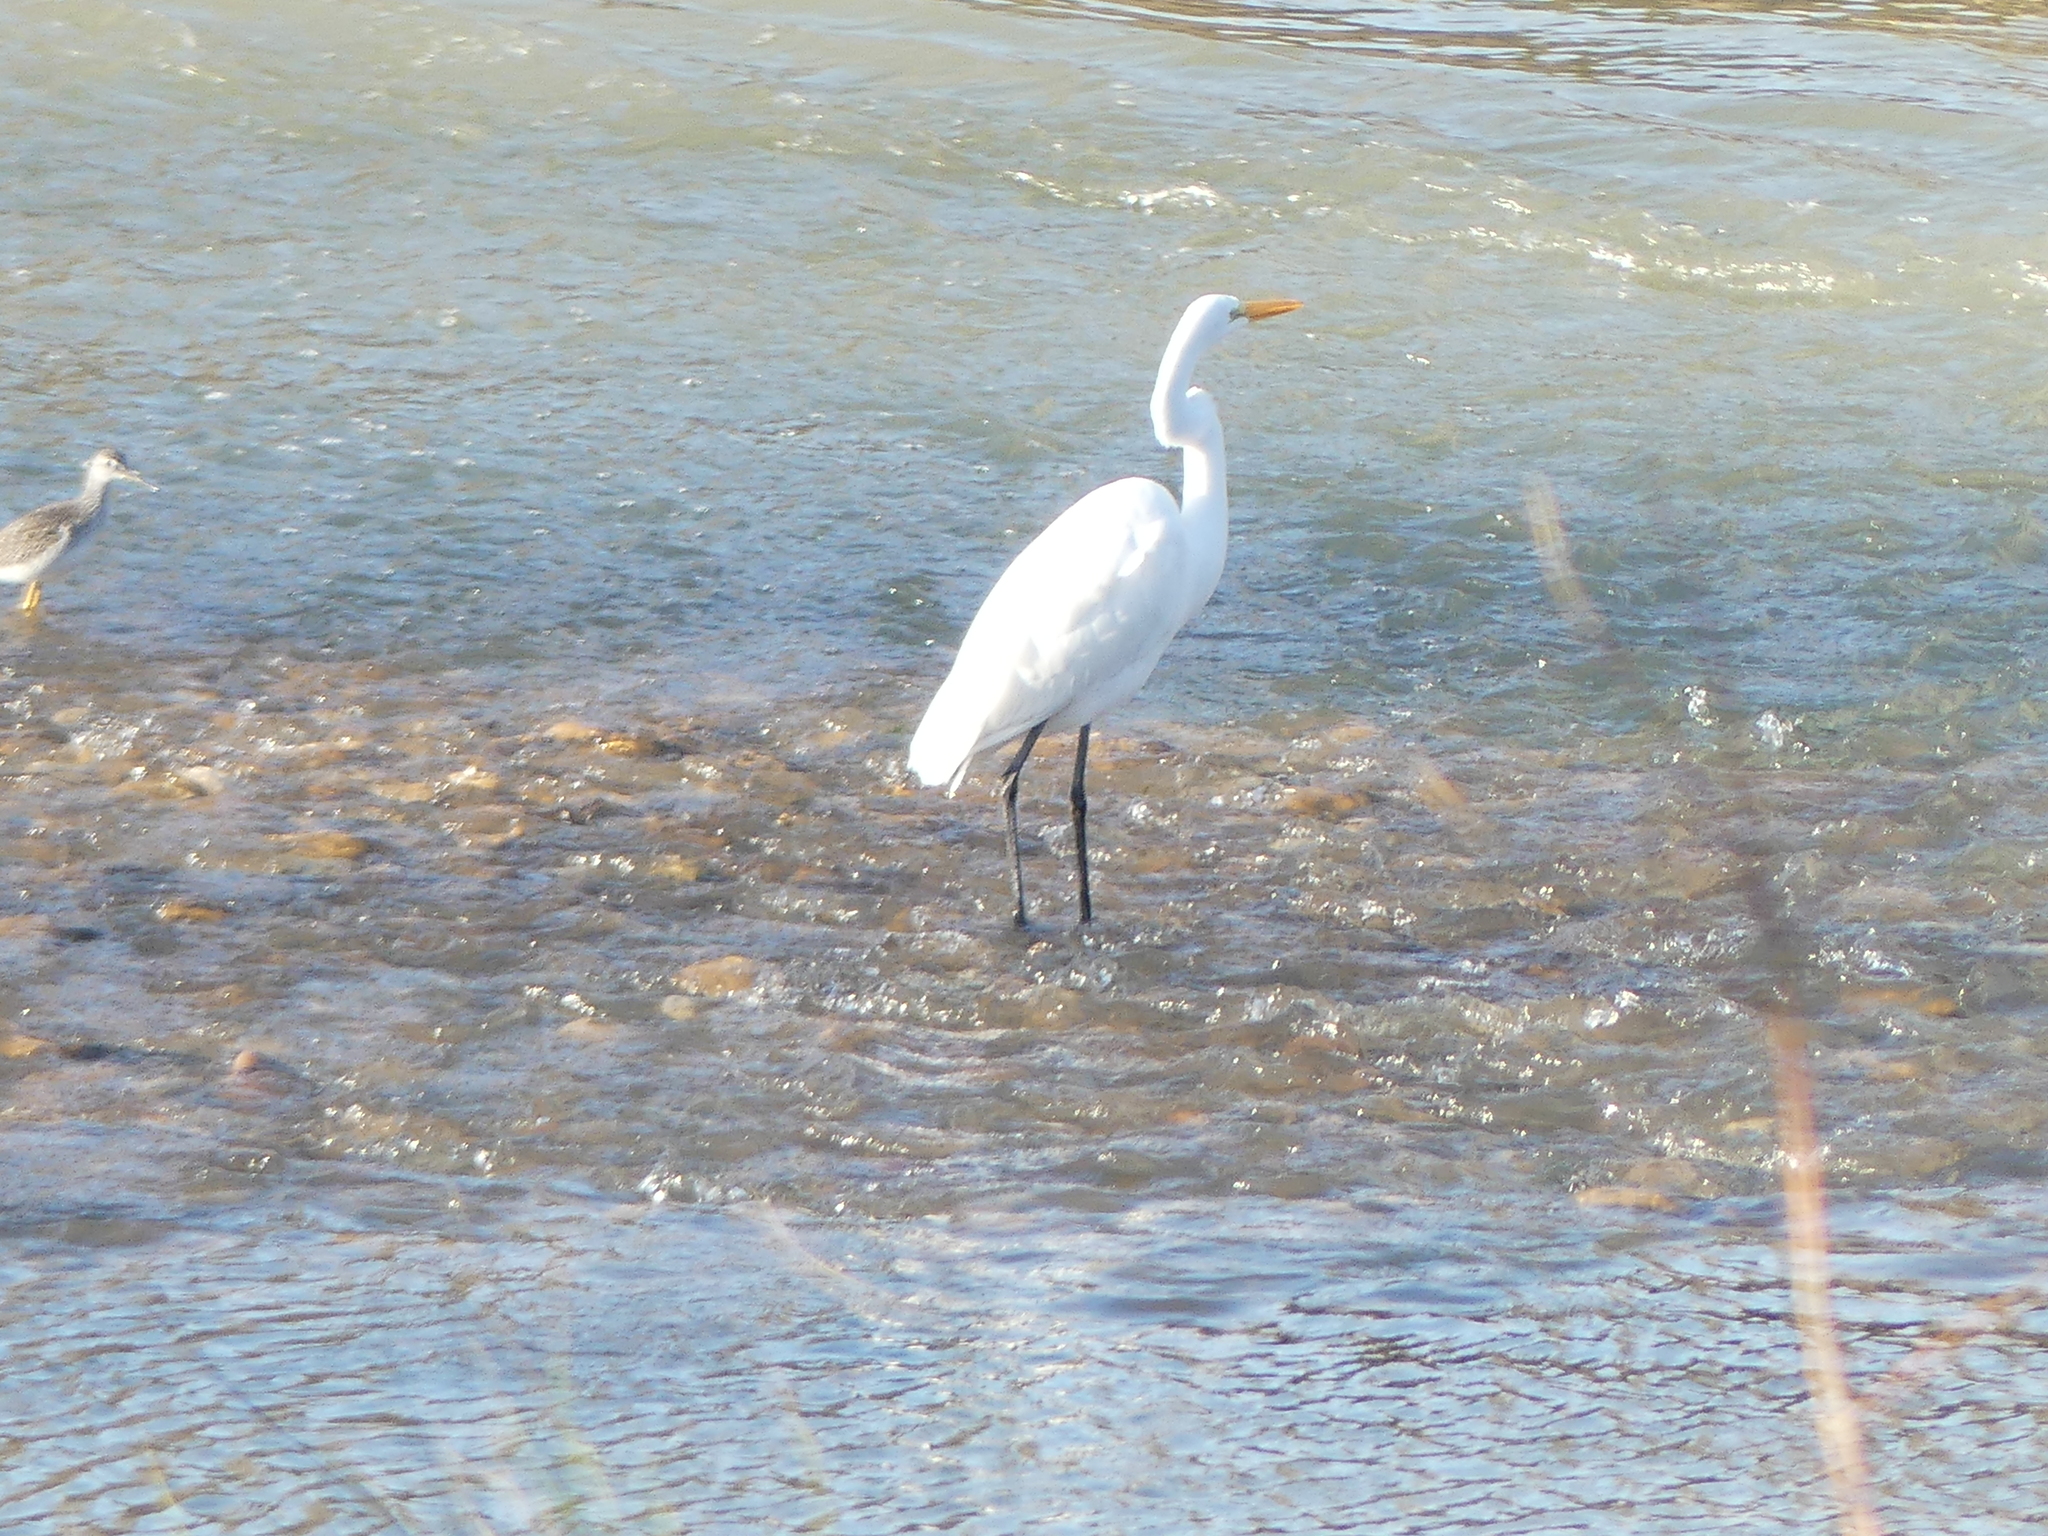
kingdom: Animalia
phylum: Chordata
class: Aves
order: Pelecaniformes
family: Ardeidae
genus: Ardea
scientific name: Ardea alba
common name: Great egret
